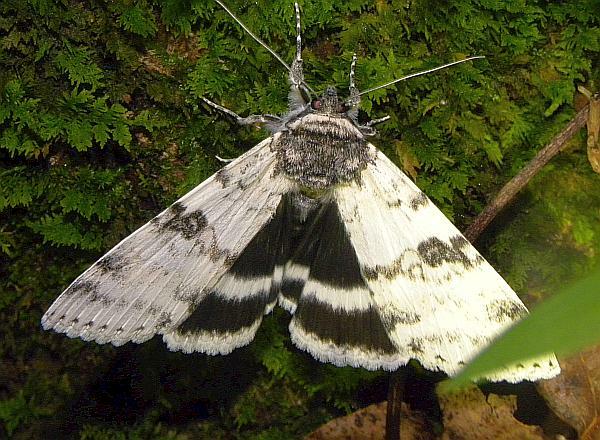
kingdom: Animalia
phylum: Arthropoda
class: Insecta
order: Lepidoptera
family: Erebidae
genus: Catocala
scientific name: Catocala relicta
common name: White underwing
